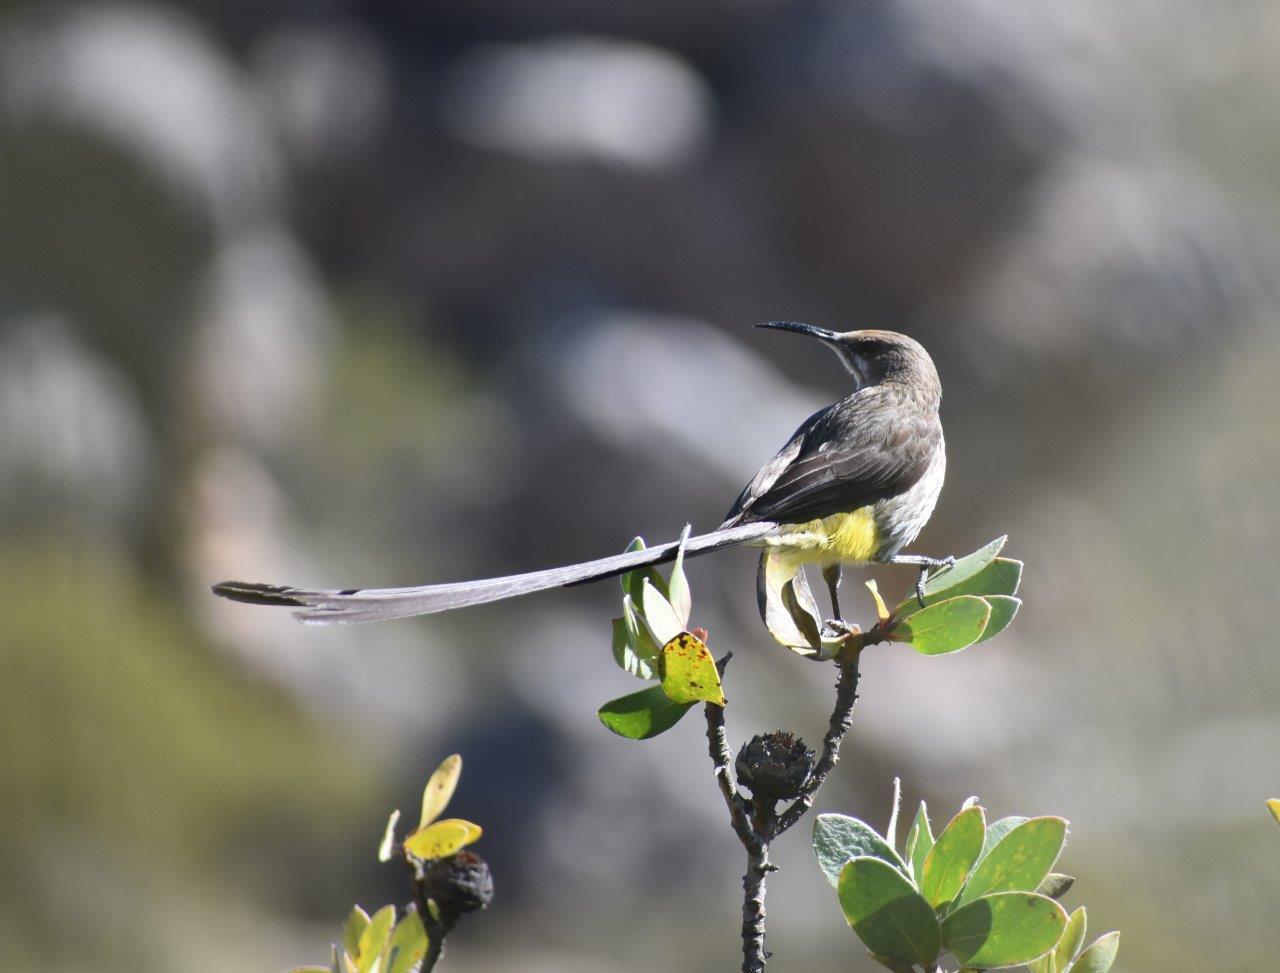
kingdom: Animalia
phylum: Chordata
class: Aves
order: Passeriformes
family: Promeropidae
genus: Promerops
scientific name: Promerops cafer
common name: Cape sugarbird
